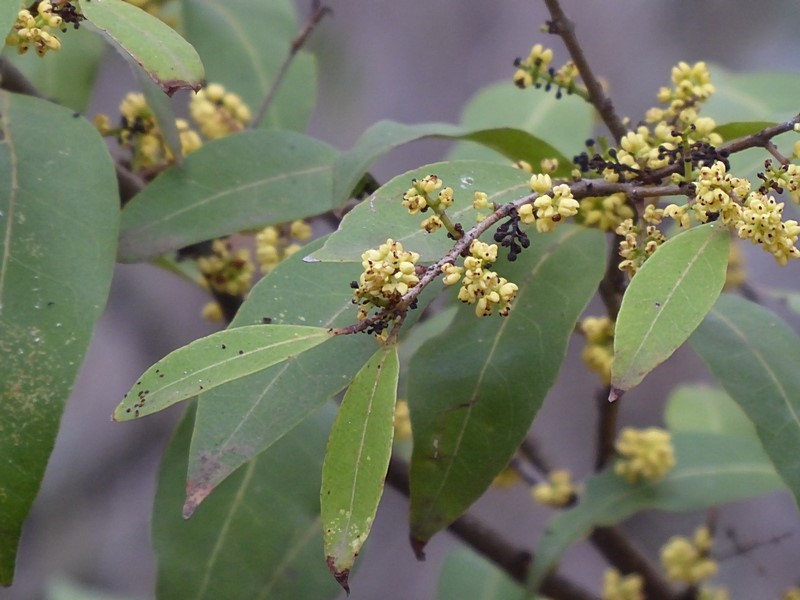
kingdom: Plantae
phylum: Tracheophyta
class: Magnoliopsida
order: Lamiales
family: Oleaceae
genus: Notelaea
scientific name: Notelaea venosa
